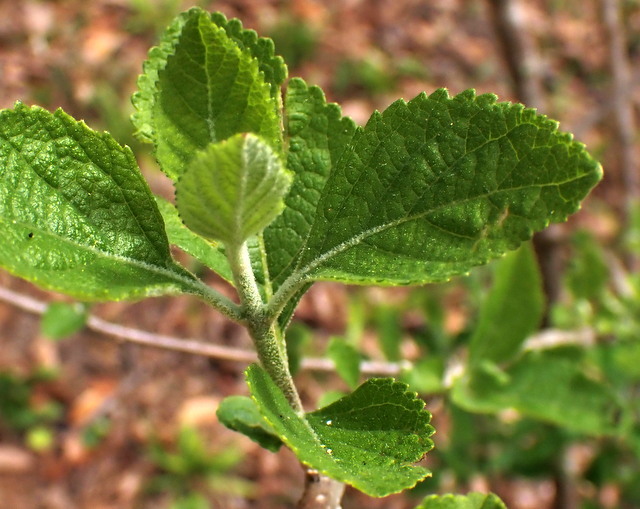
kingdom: Plantae
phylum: Tracheophyta
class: Magnoliopsida
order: Lamiales
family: Lamiaceae
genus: Callicarpa
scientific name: Callicarpa americana
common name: American beautyberry
